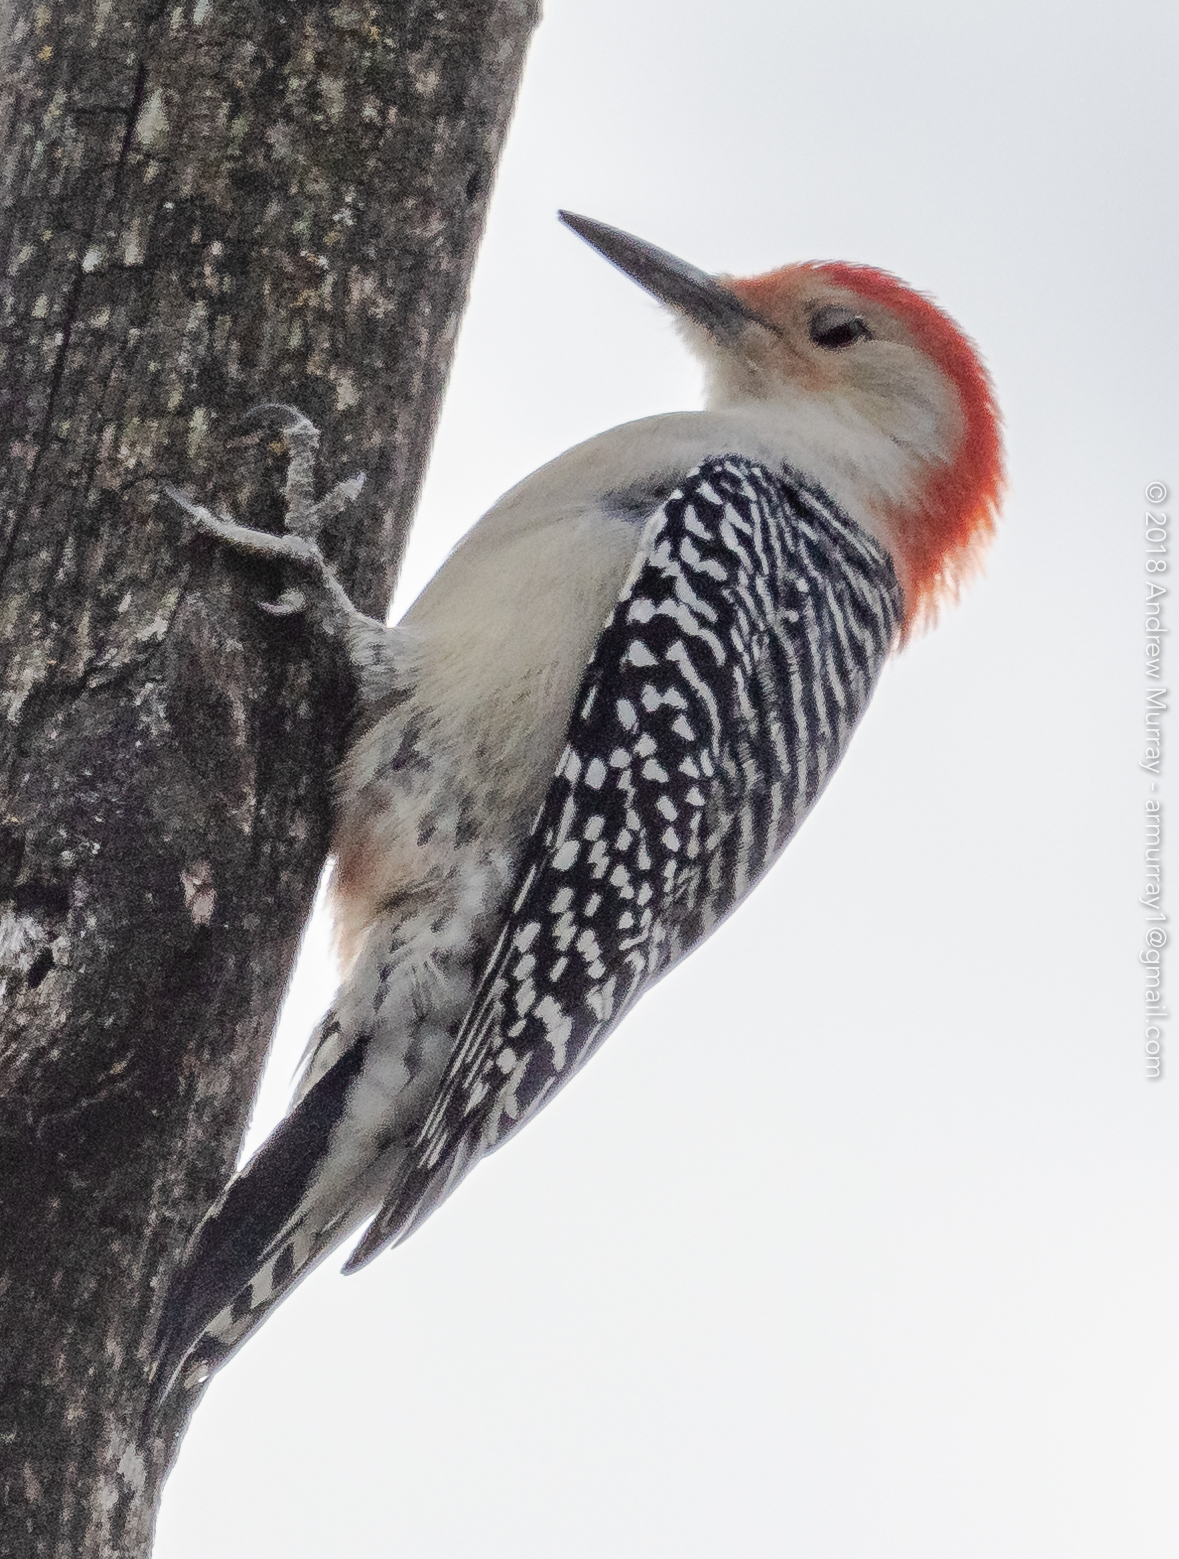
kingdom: Animalia
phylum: Chordata
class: Aves
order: Piciformes
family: Picidae
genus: Melanerpes
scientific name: Melanerpes carolinus
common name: Red-bellied woodpecker
